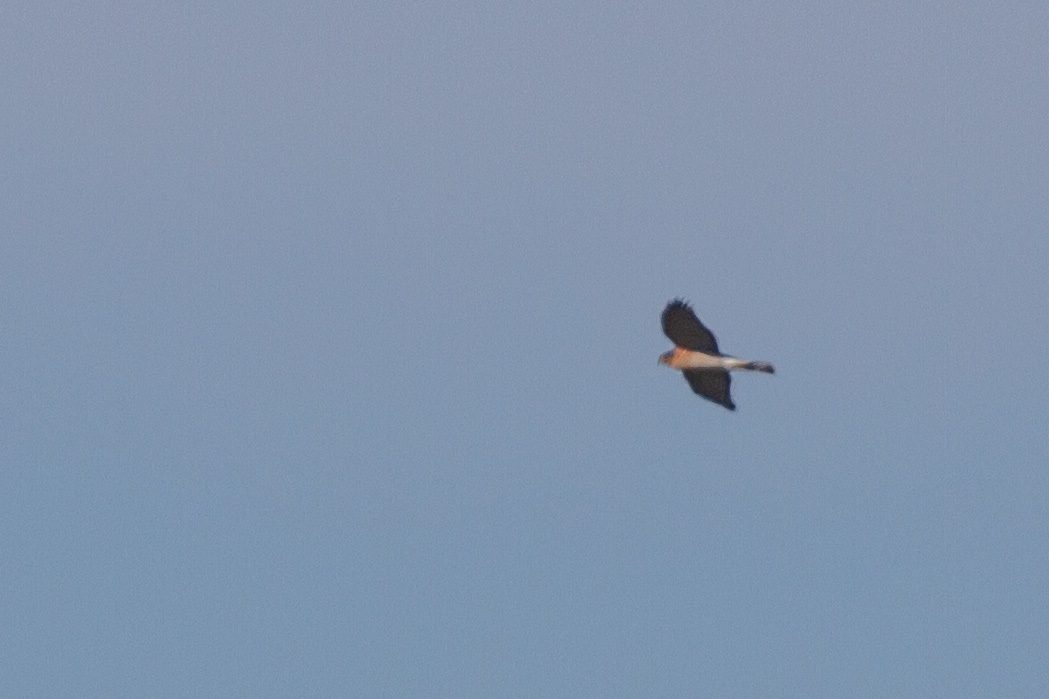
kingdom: Animalia
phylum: Chordata
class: Aves
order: Accipitriformes
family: Accipitridae
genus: Accipiter
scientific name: Accipiter nisus
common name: Eurasian sparrowhawk
